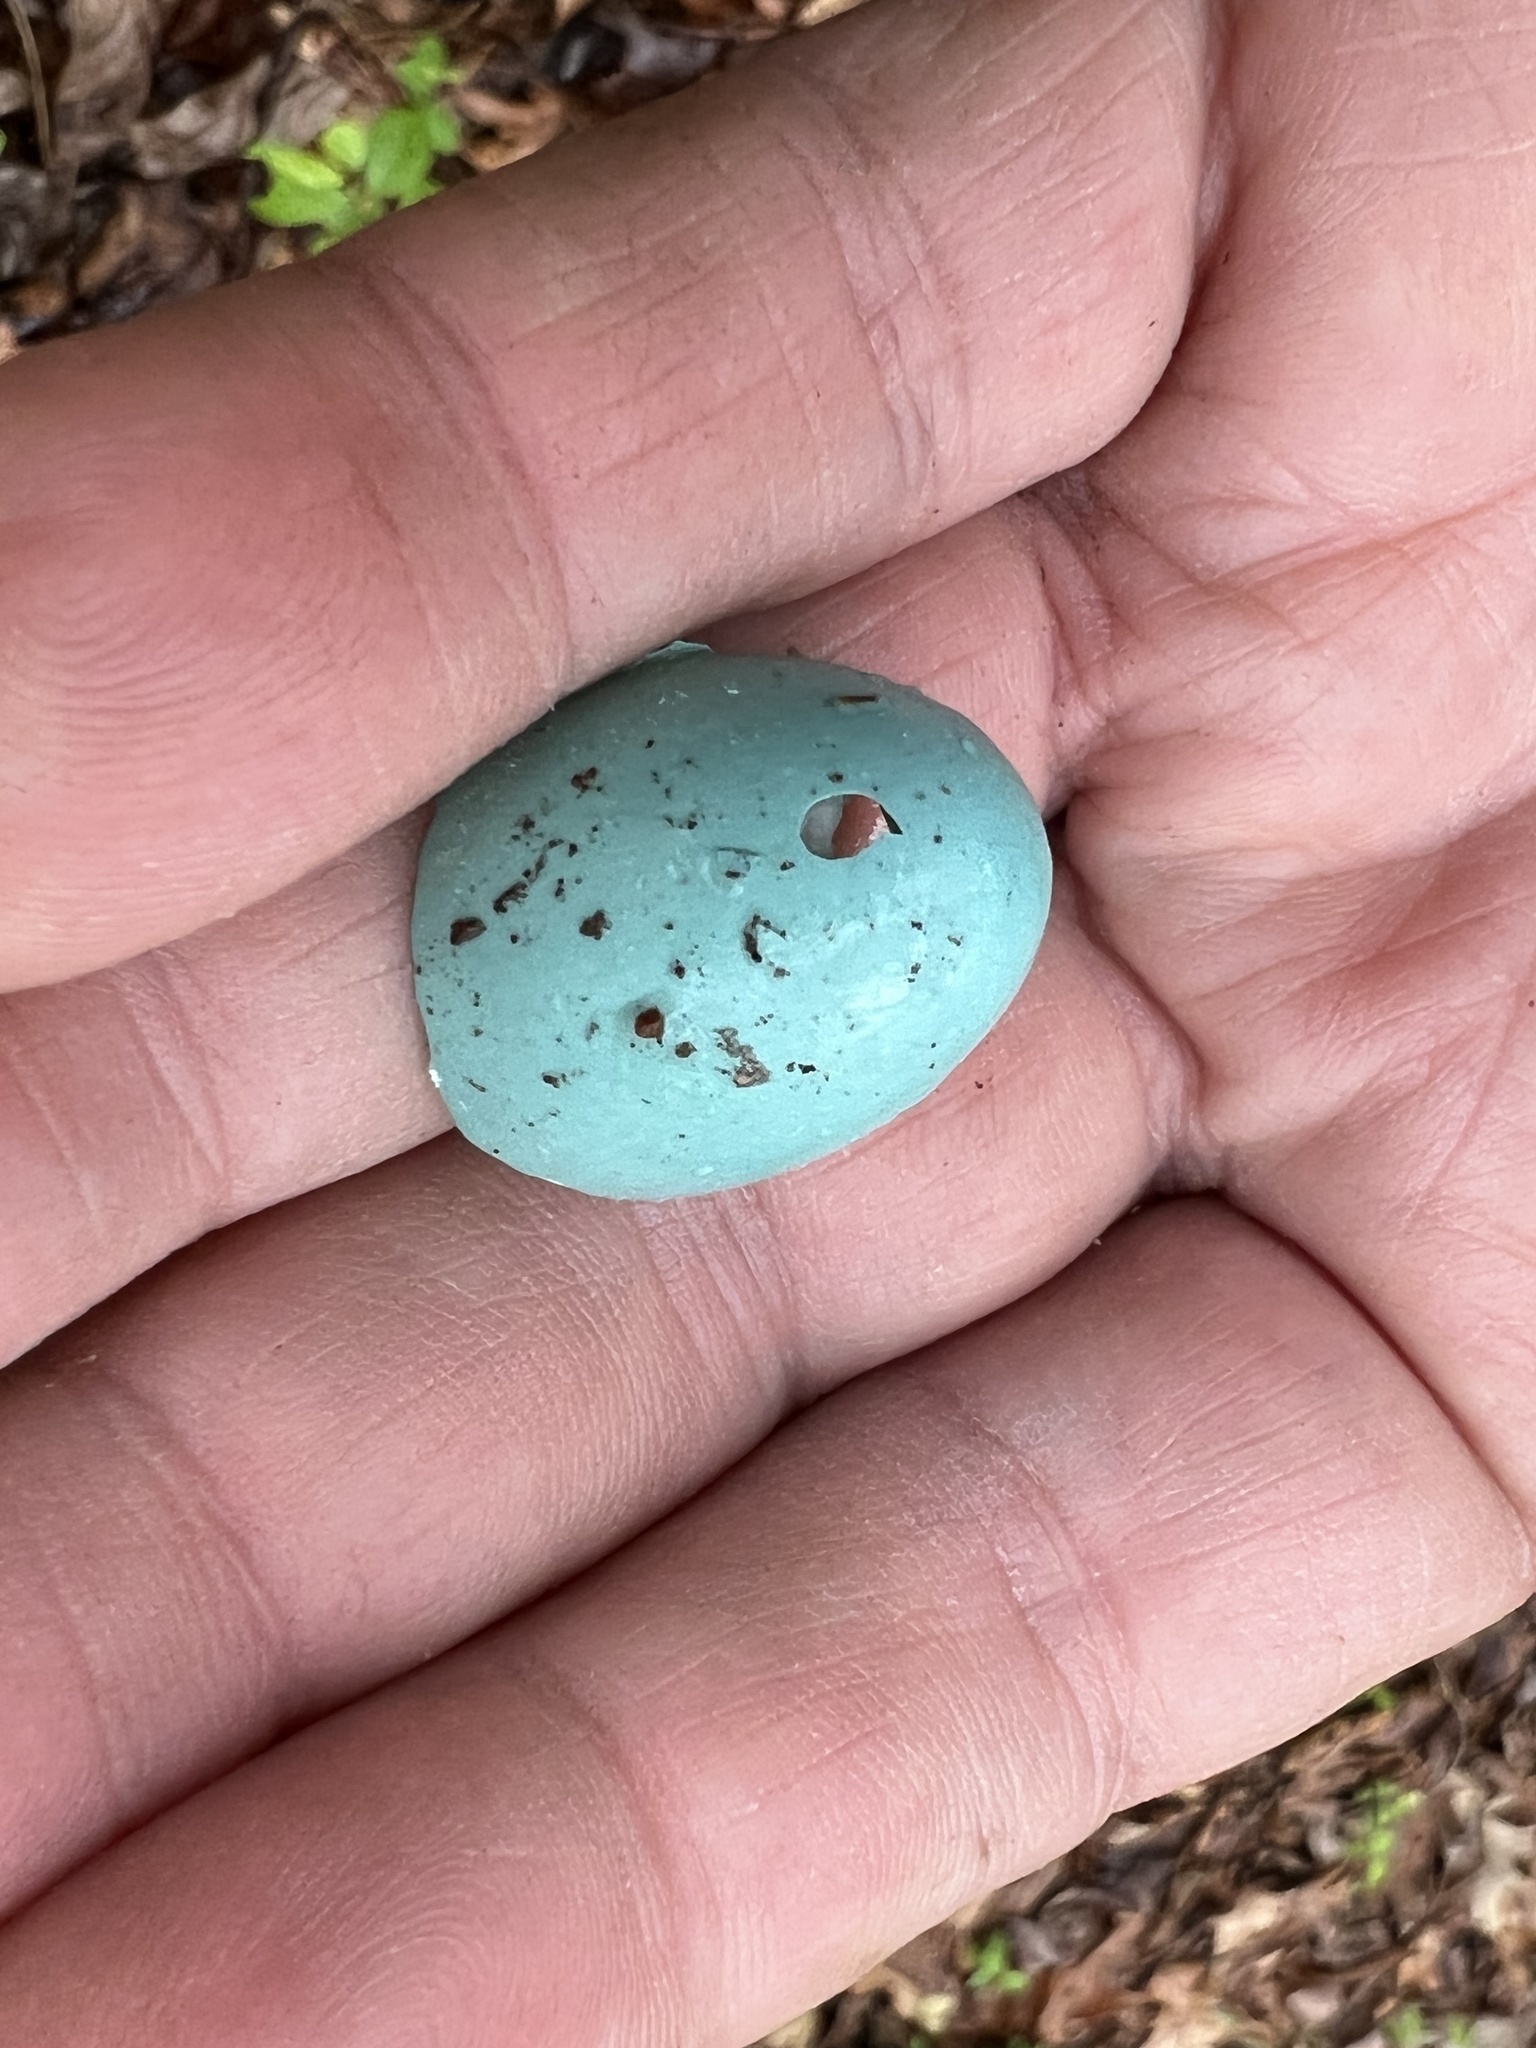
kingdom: Animalia
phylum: Chordata
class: Aves
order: Passeriformes
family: Turdidae
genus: Turdus
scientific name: Turdus migratorius
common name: American robin
